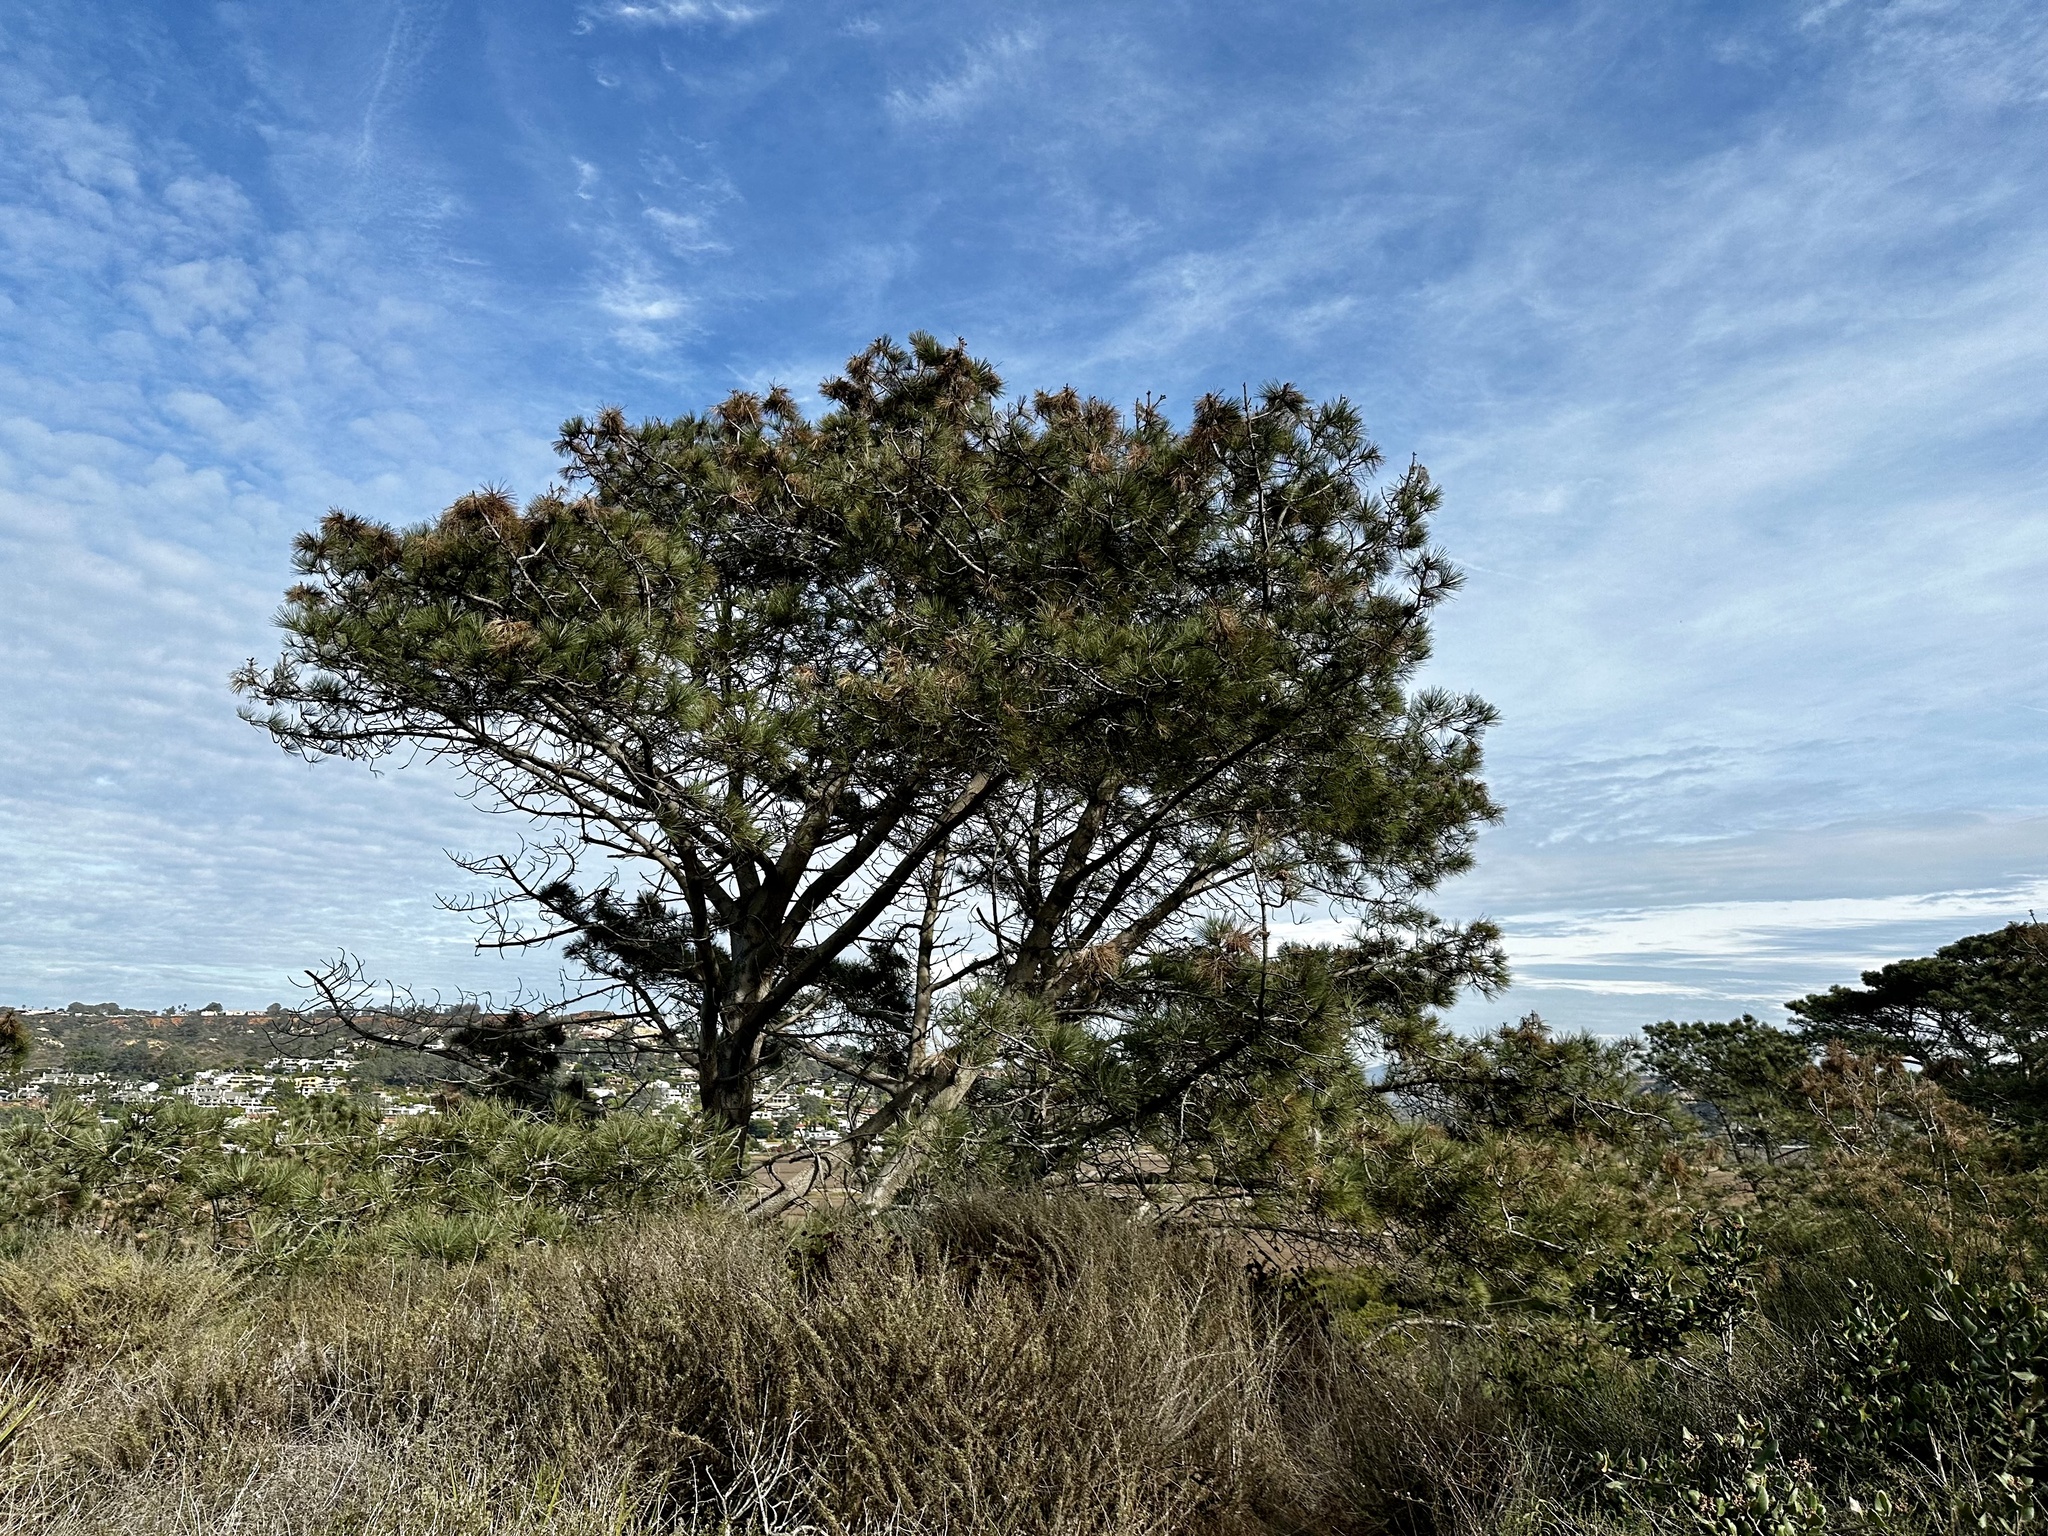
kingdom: Plantae
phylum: Tracheophyta
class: Pinopsida
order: Pinales
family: Pinaceae
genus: Pinus
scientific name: Pinus torreyana
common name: Torrey pine
